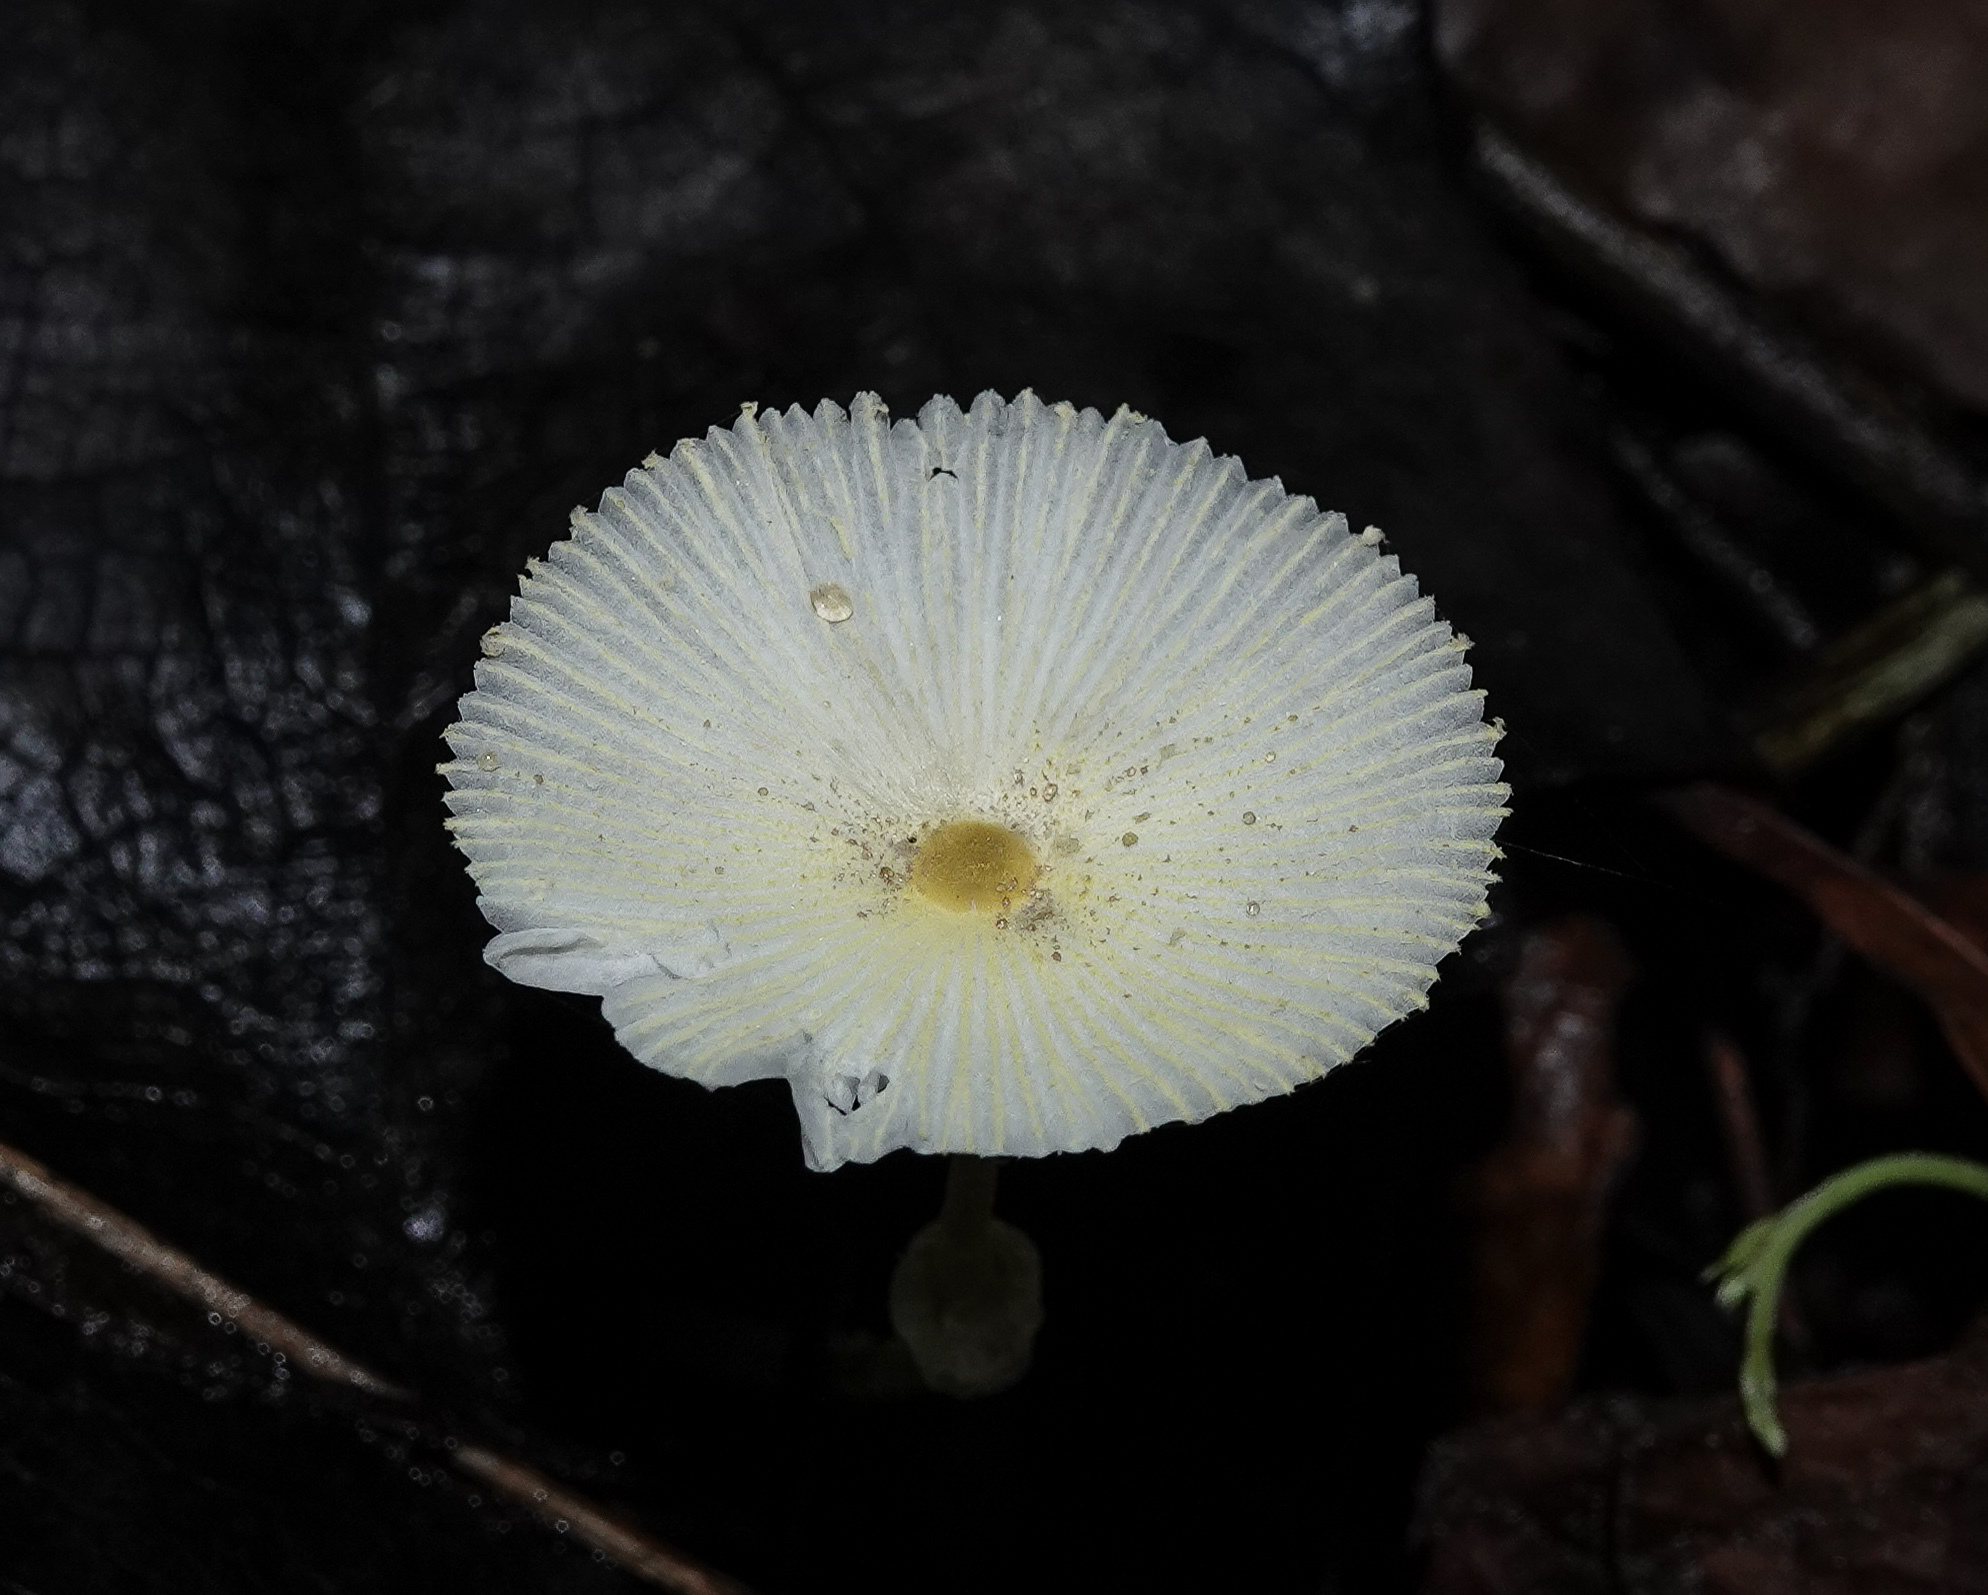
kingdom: Fungi
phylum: Basidiomycota
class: Agaricomycetes
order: Agaricales
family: Agaricaceae
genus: Leucocoprinus
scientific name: Leucocoprinus fragilissimus
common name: Fragile dapperling
